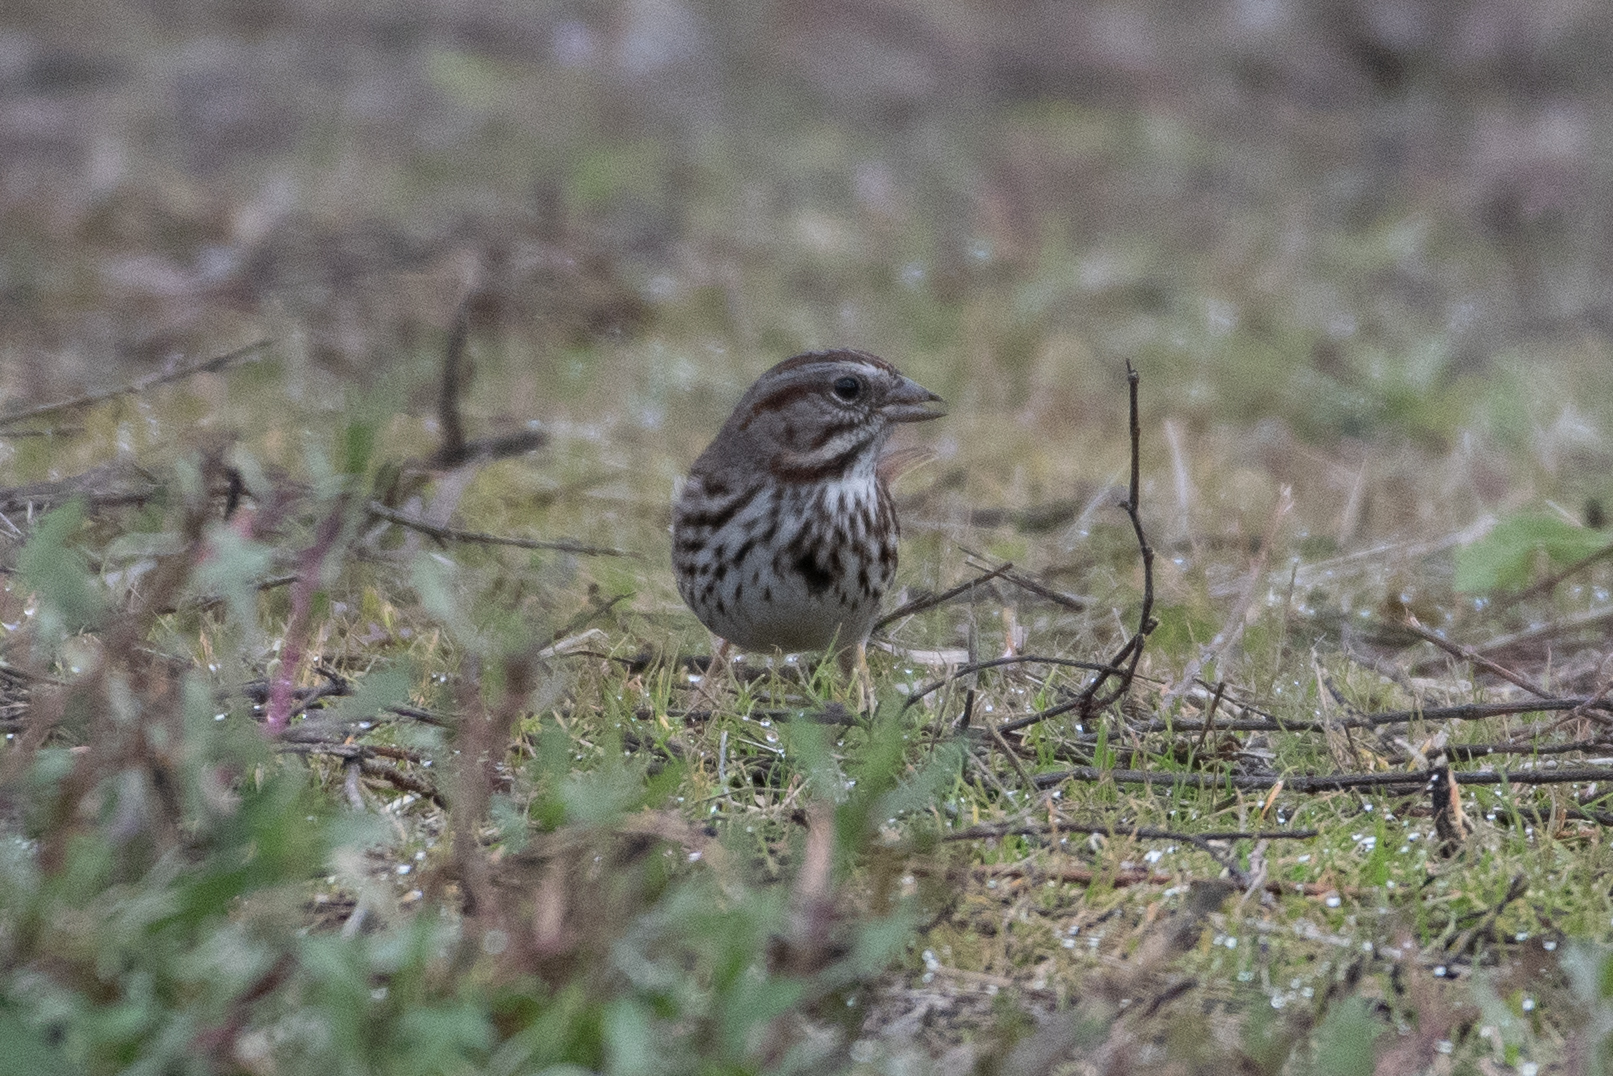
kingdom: Animalia
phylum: Chordata
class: Aves
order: Passeriformes
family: Passerellidae
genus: Melospiza
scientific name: Melospiza melodia
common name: Song sparrow
